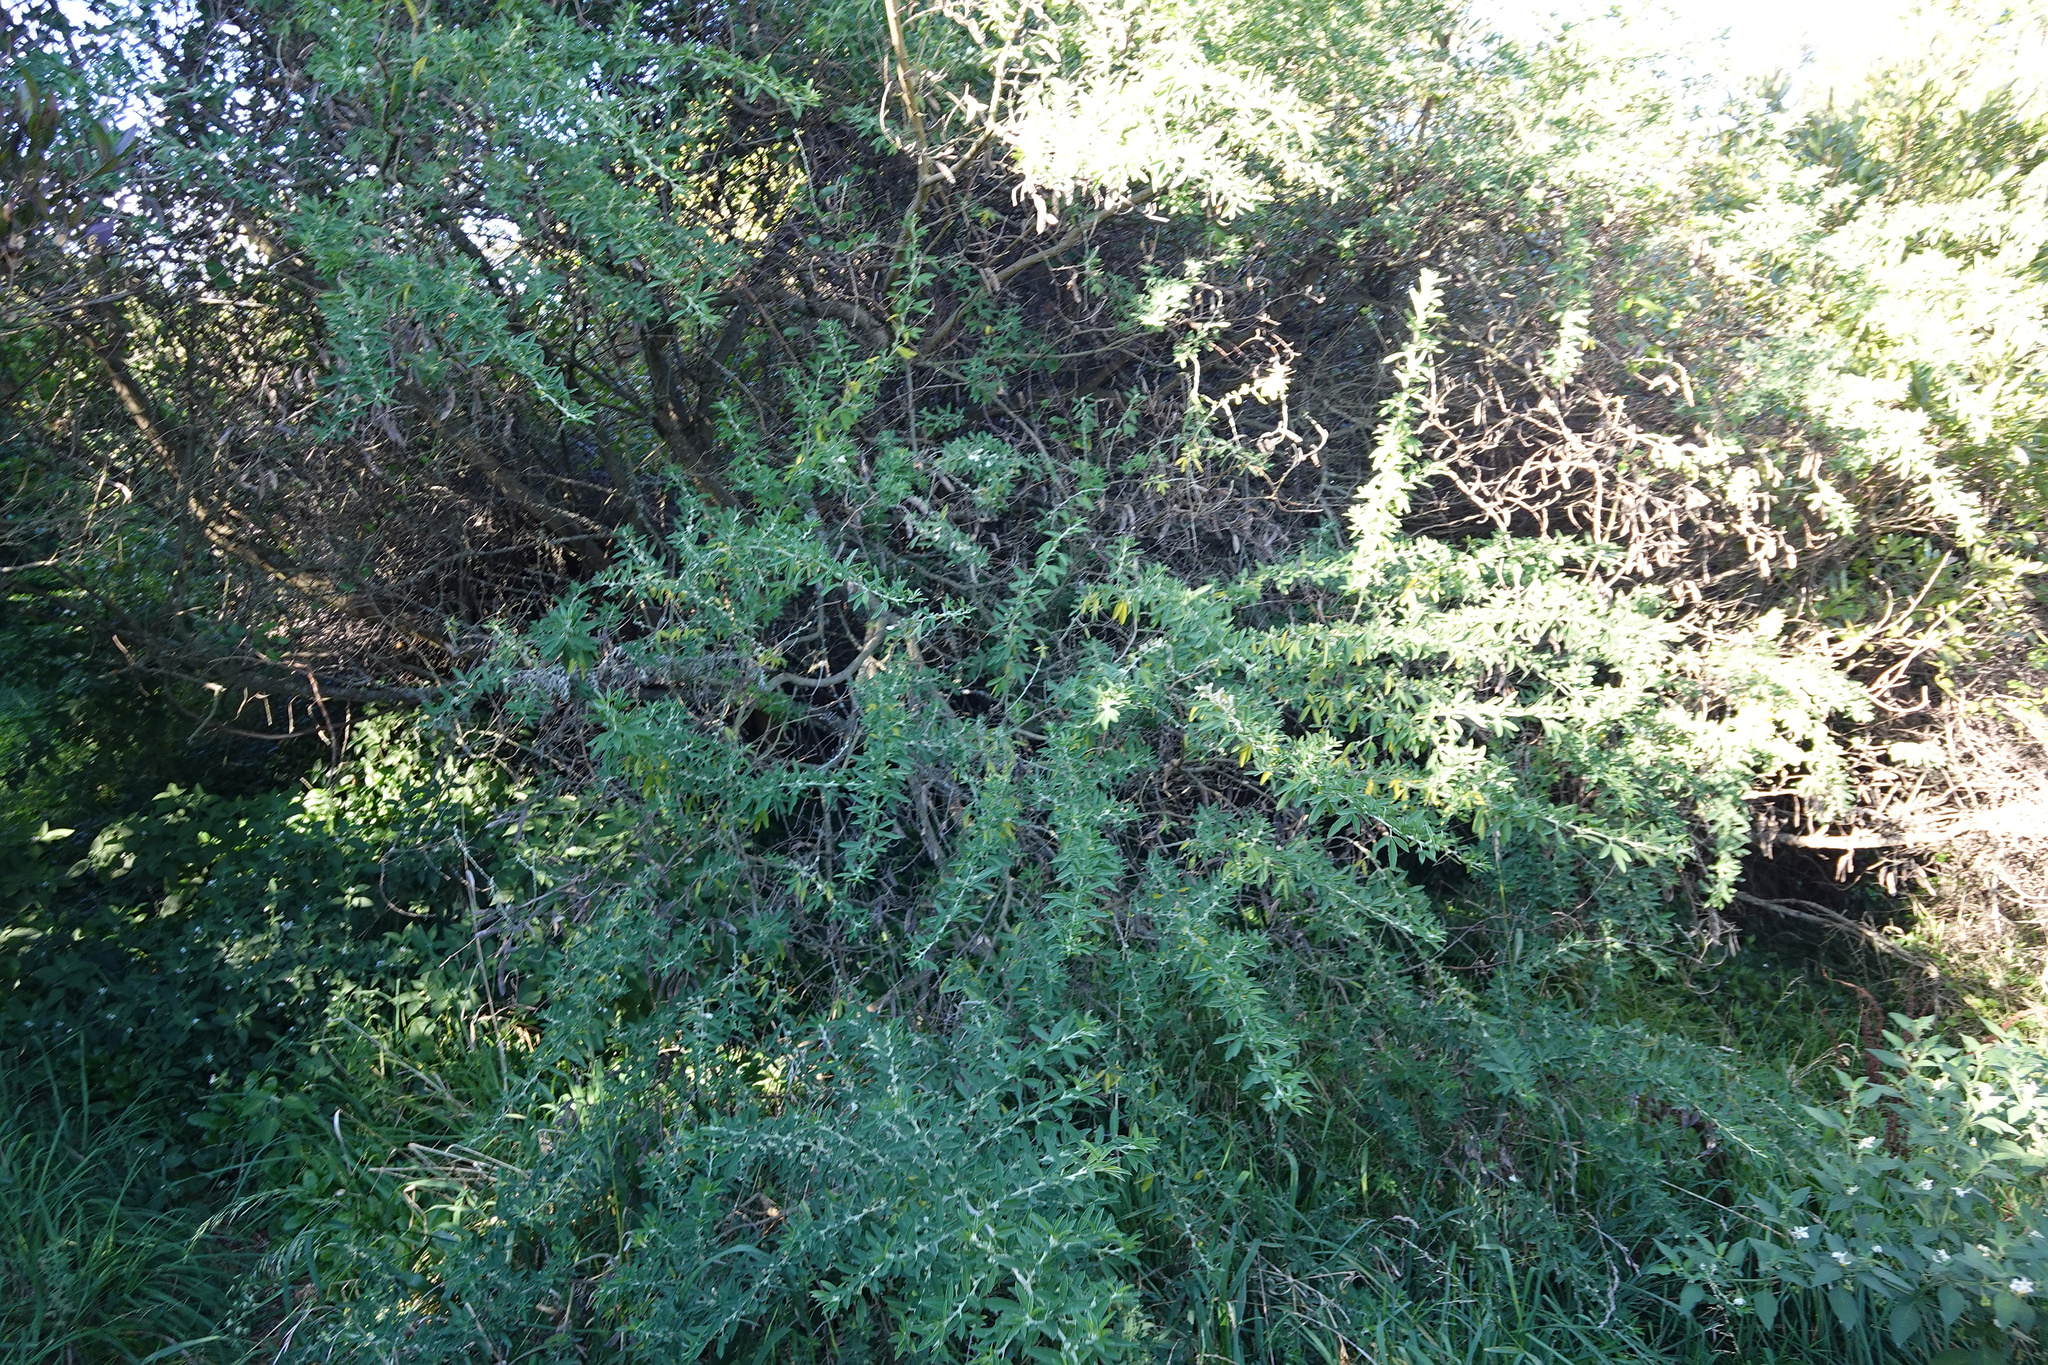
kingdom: Plantae
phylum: Tracheophyta
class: Magnoliopsida
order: Fabales
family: Fabaceae
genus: Chamaecytisus
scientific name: Chamaecytisus prolifer
